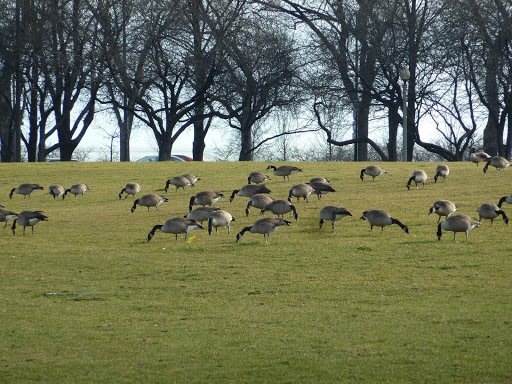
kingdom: Animalia
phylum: Chordata
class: Aves
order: Anseriformes
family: Anatidae
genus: Branta
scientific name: Branta canadensis
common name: Canada goose
